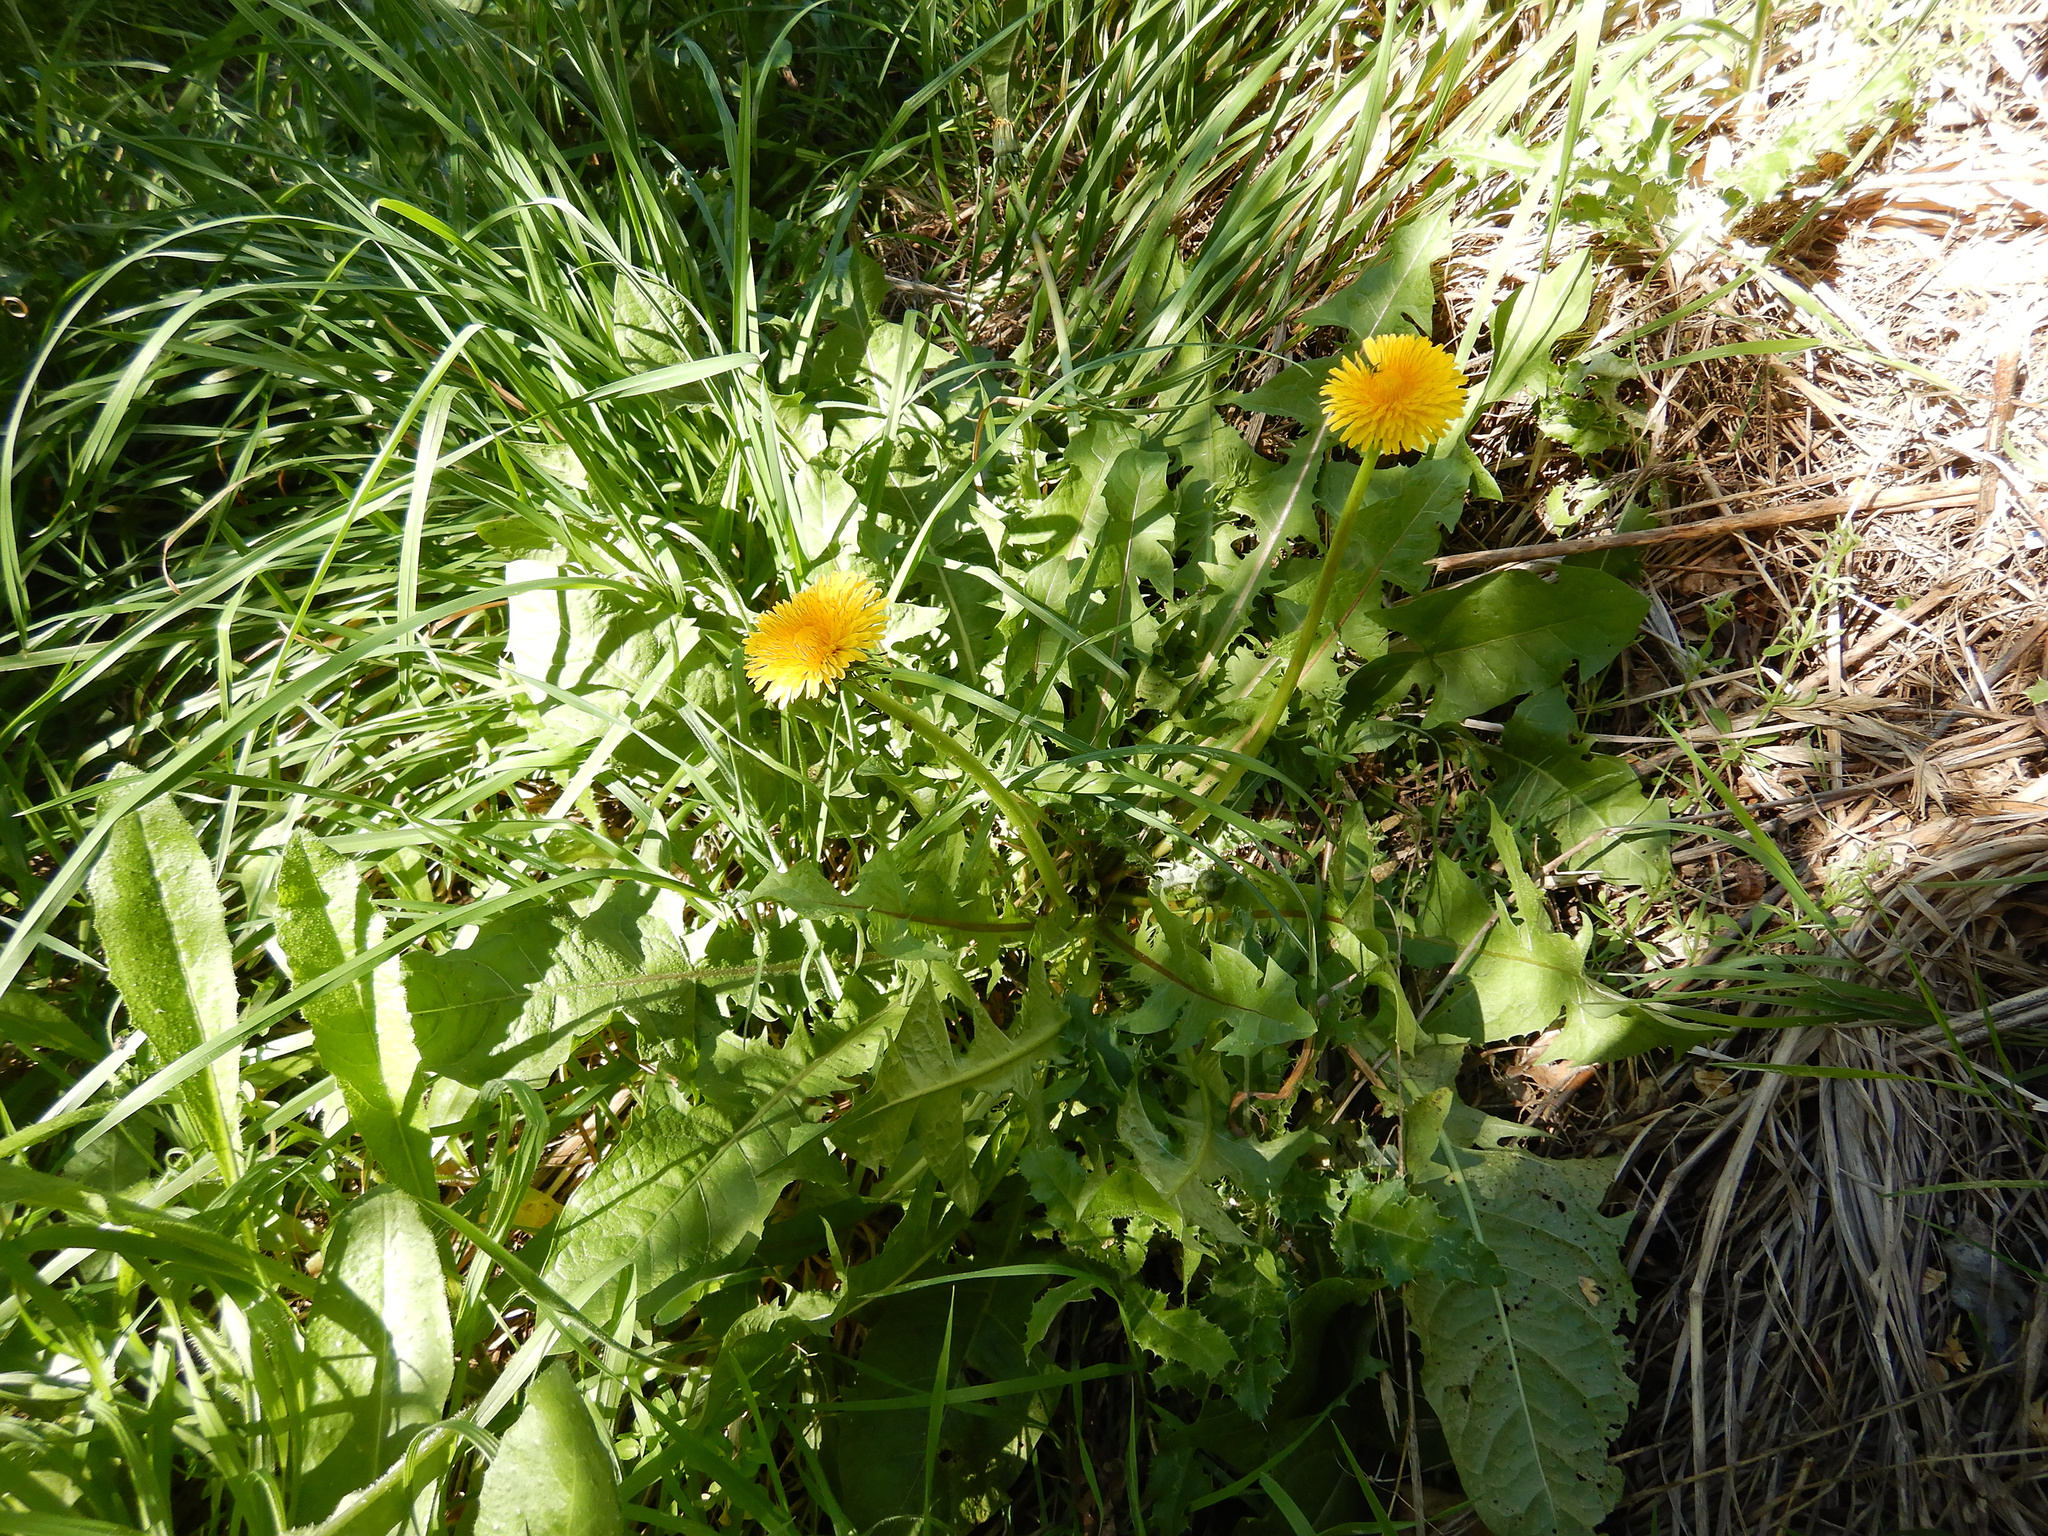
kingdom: Plantae
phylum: Tracheophyta
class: Magnoliopsida
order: Asterales
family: Asteraceae
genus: Taraxacum
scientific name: Taraxacum officinale
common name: Common dandelion
